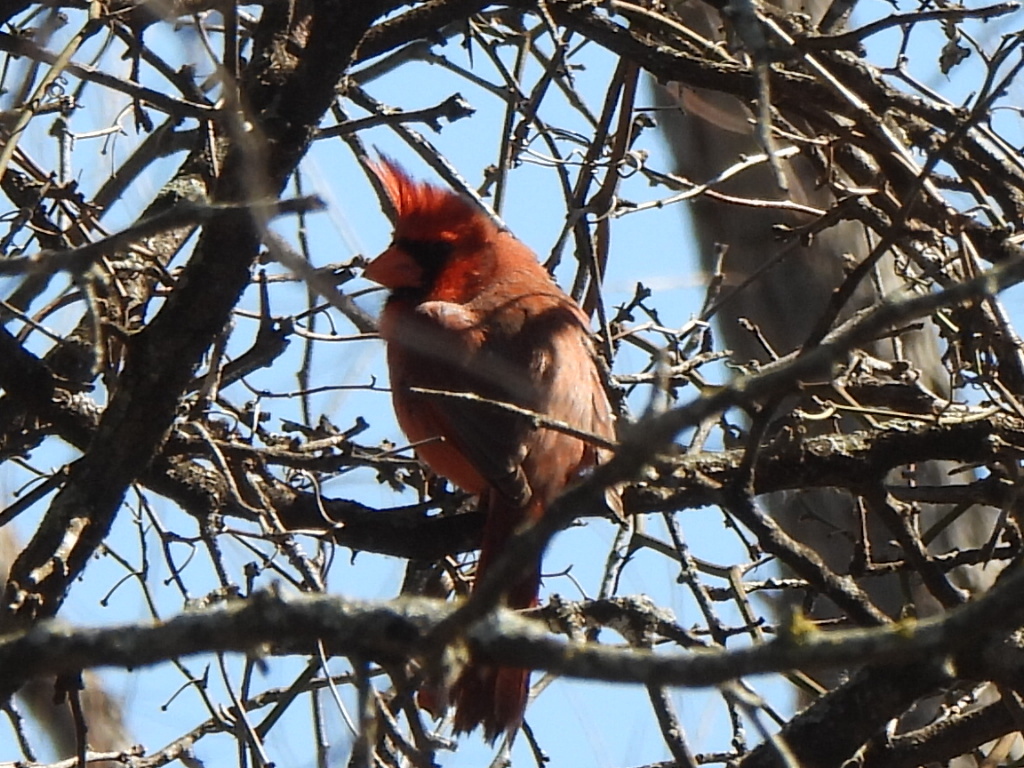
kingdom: Animalia
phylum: Chordata
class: Aves
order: Passeriformes
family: Cardinalidae
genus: Cardinalis
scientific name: Cardinalis cardinalis
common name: Northern cardinal
